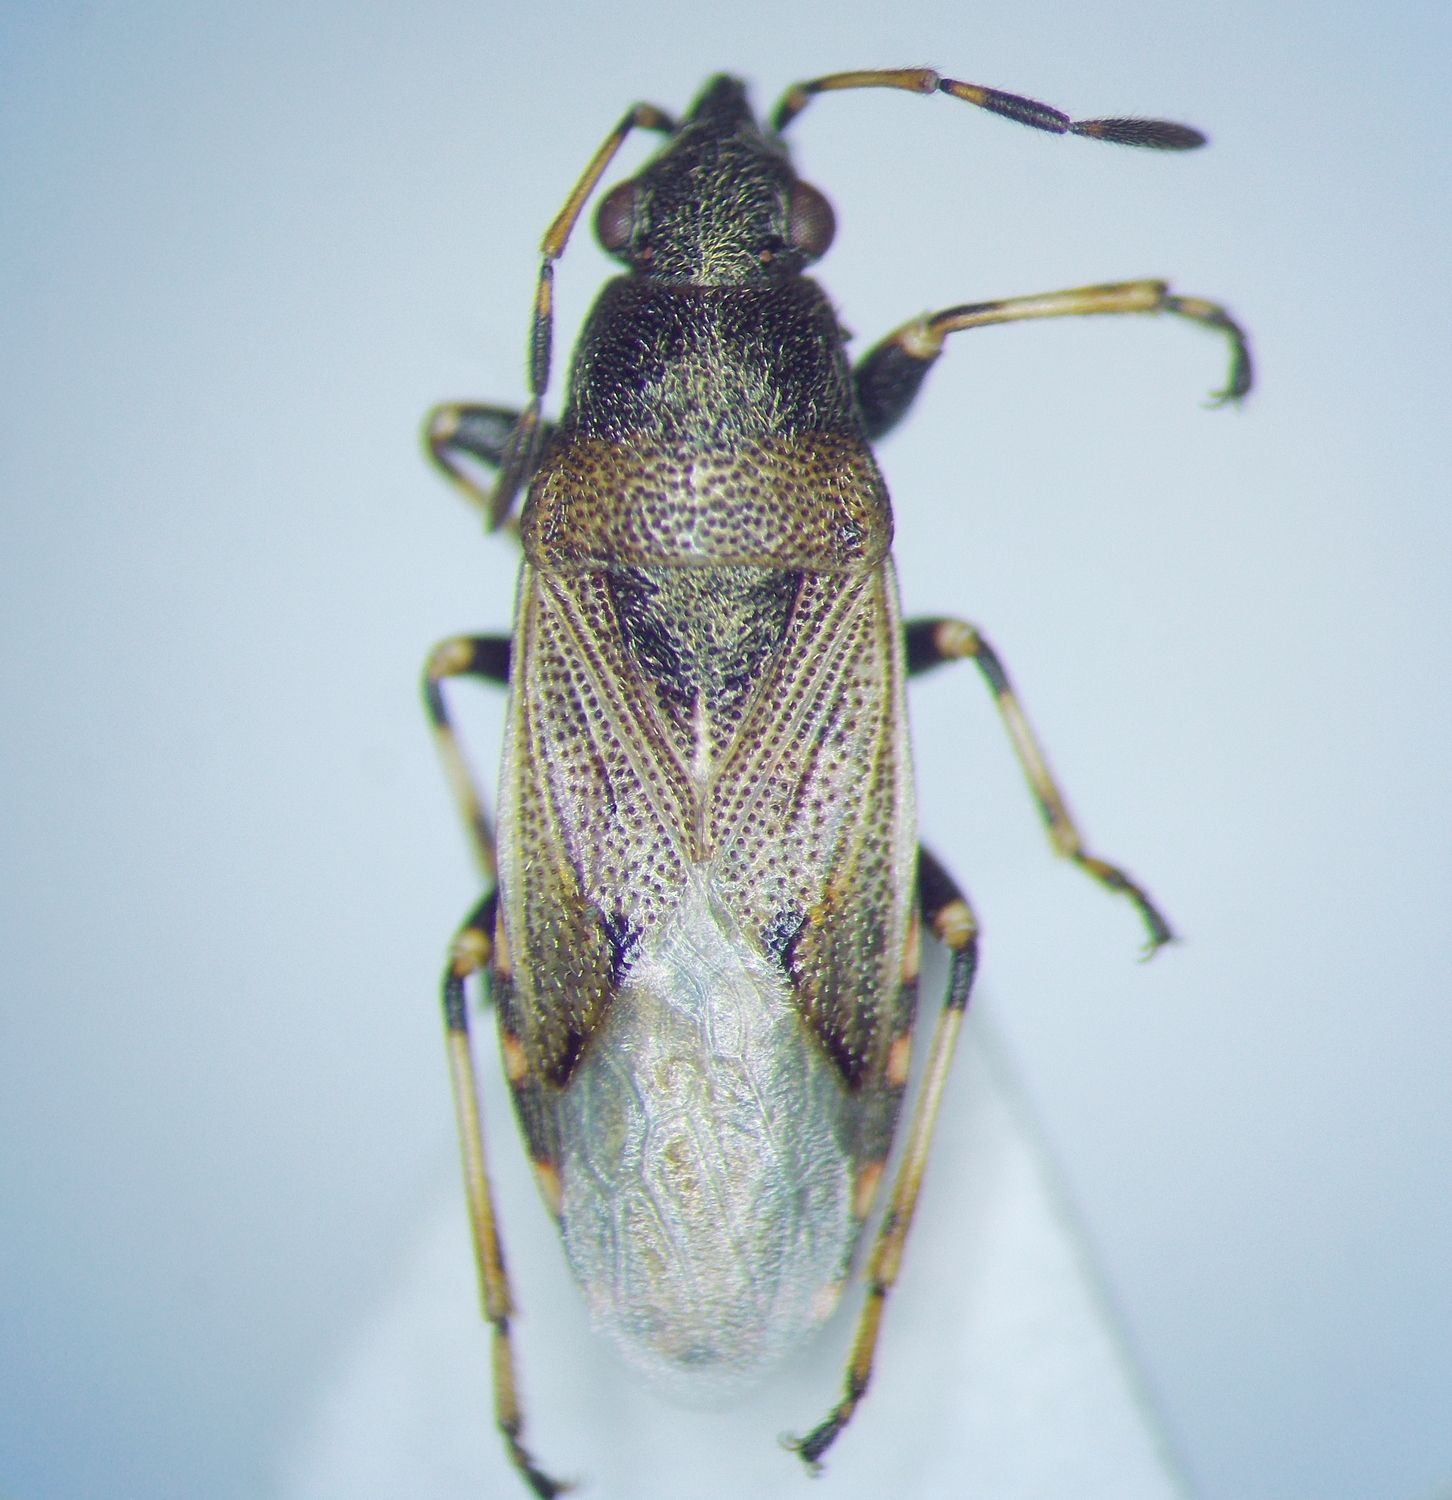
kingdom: Animalia
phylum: Arthropoda
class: Insecta
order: Hemiptera
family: Heterogastridae
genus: Heterogaster
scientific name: Heterogaster artemisiae
